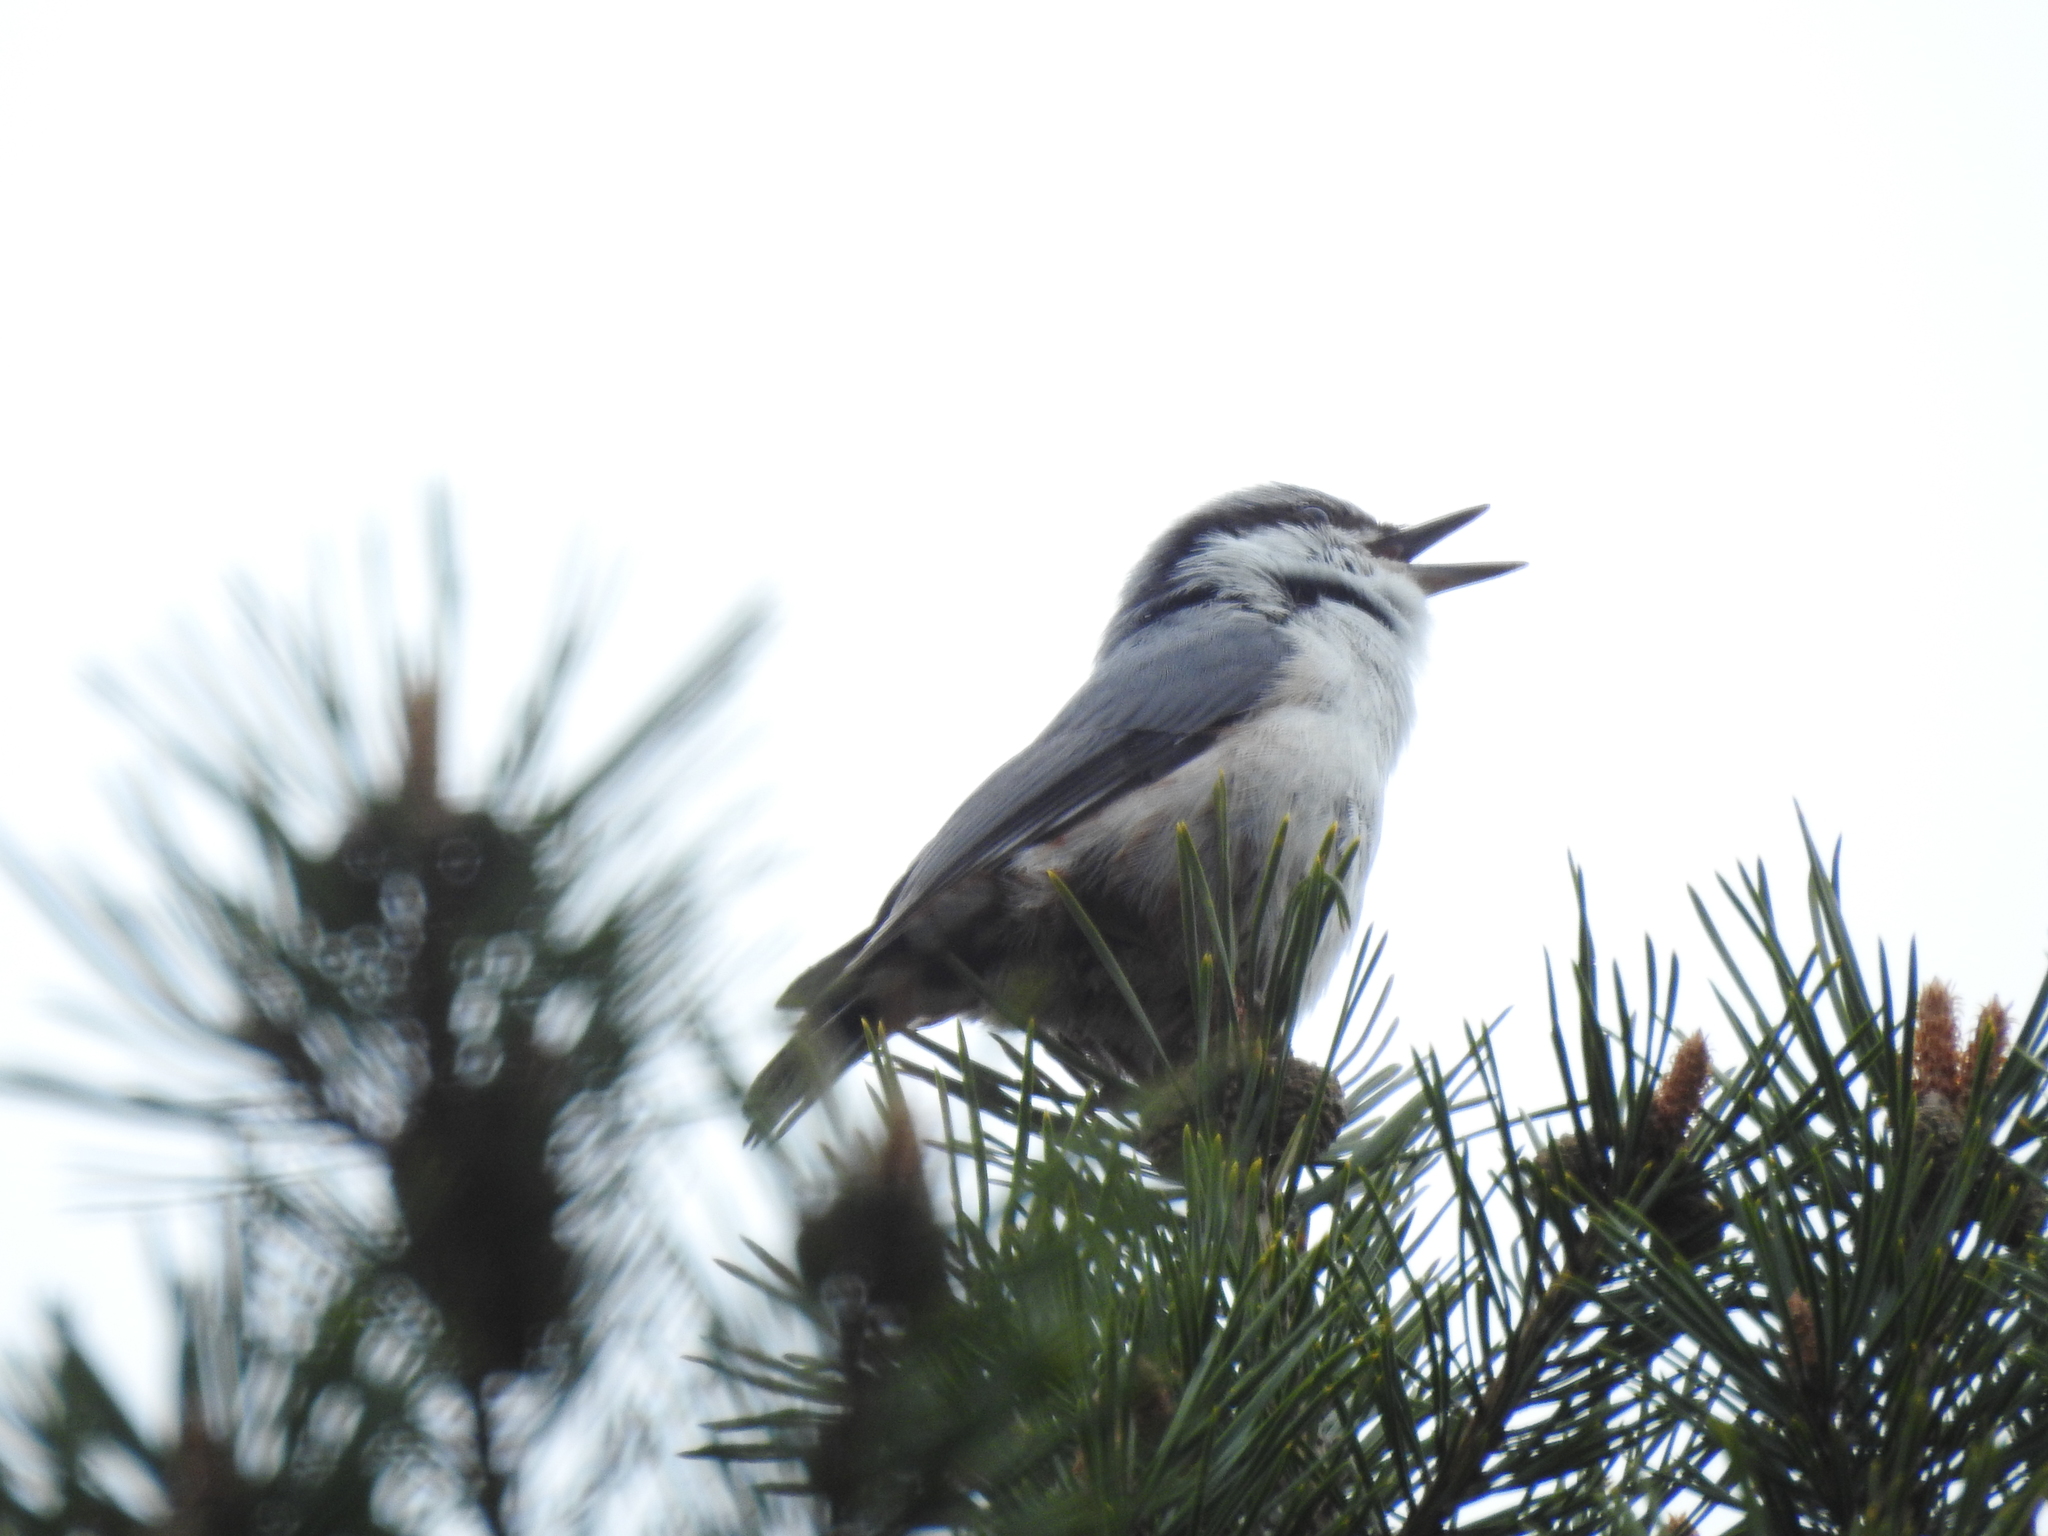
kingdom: Animalia
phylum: Chordata
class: Aves
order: Passeriformes
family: Sittidae
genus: Sitta
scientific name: Sitta europaea
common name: Eurasian nuthatch
